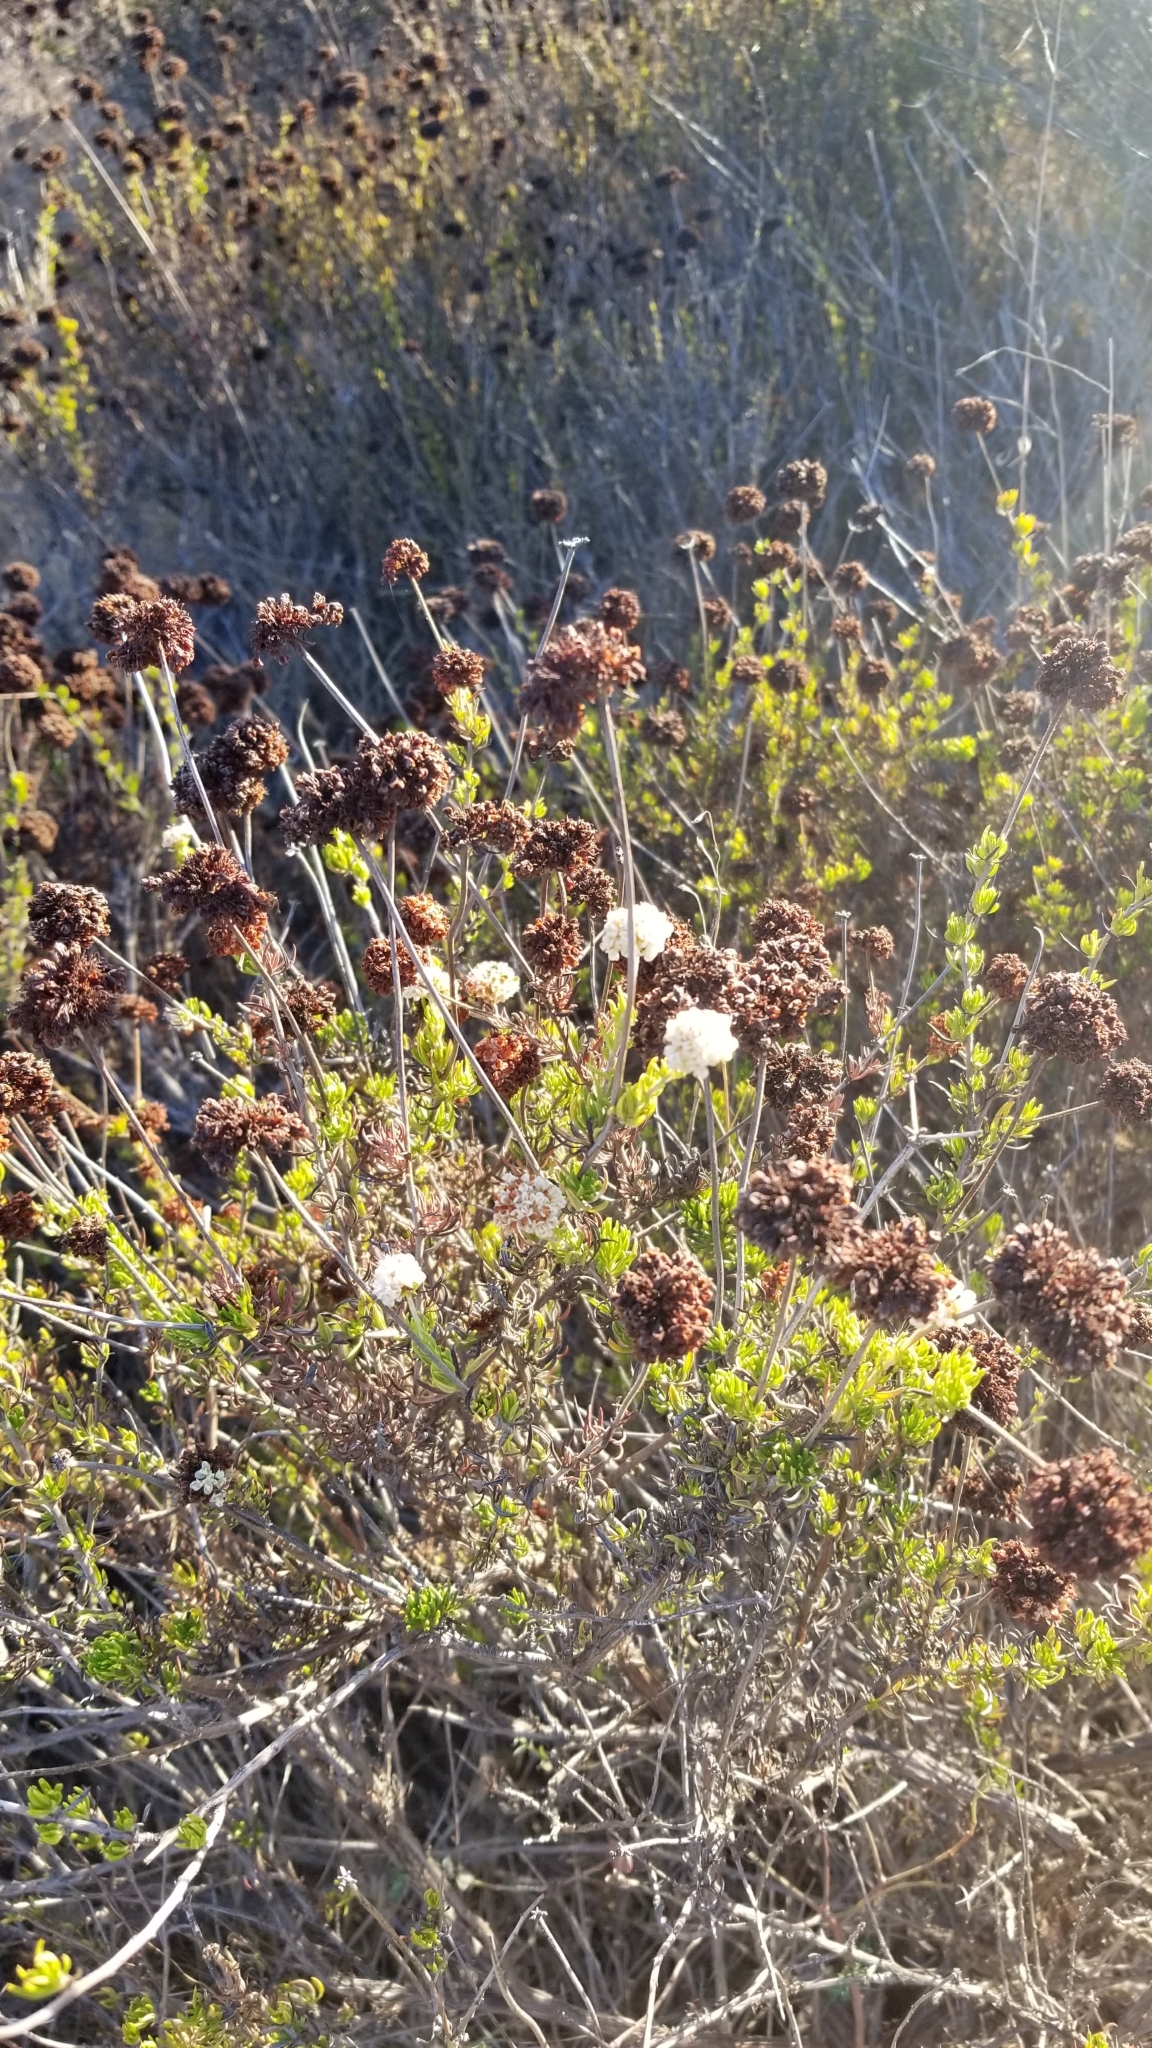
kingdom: Plantae
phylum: Tracheophyta
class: Magnoliopsida
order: Caryophyllales
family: Polygonaceae
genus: Eriogonum
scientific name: Eriogonum fasciculatum
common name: California wild buckwheat
